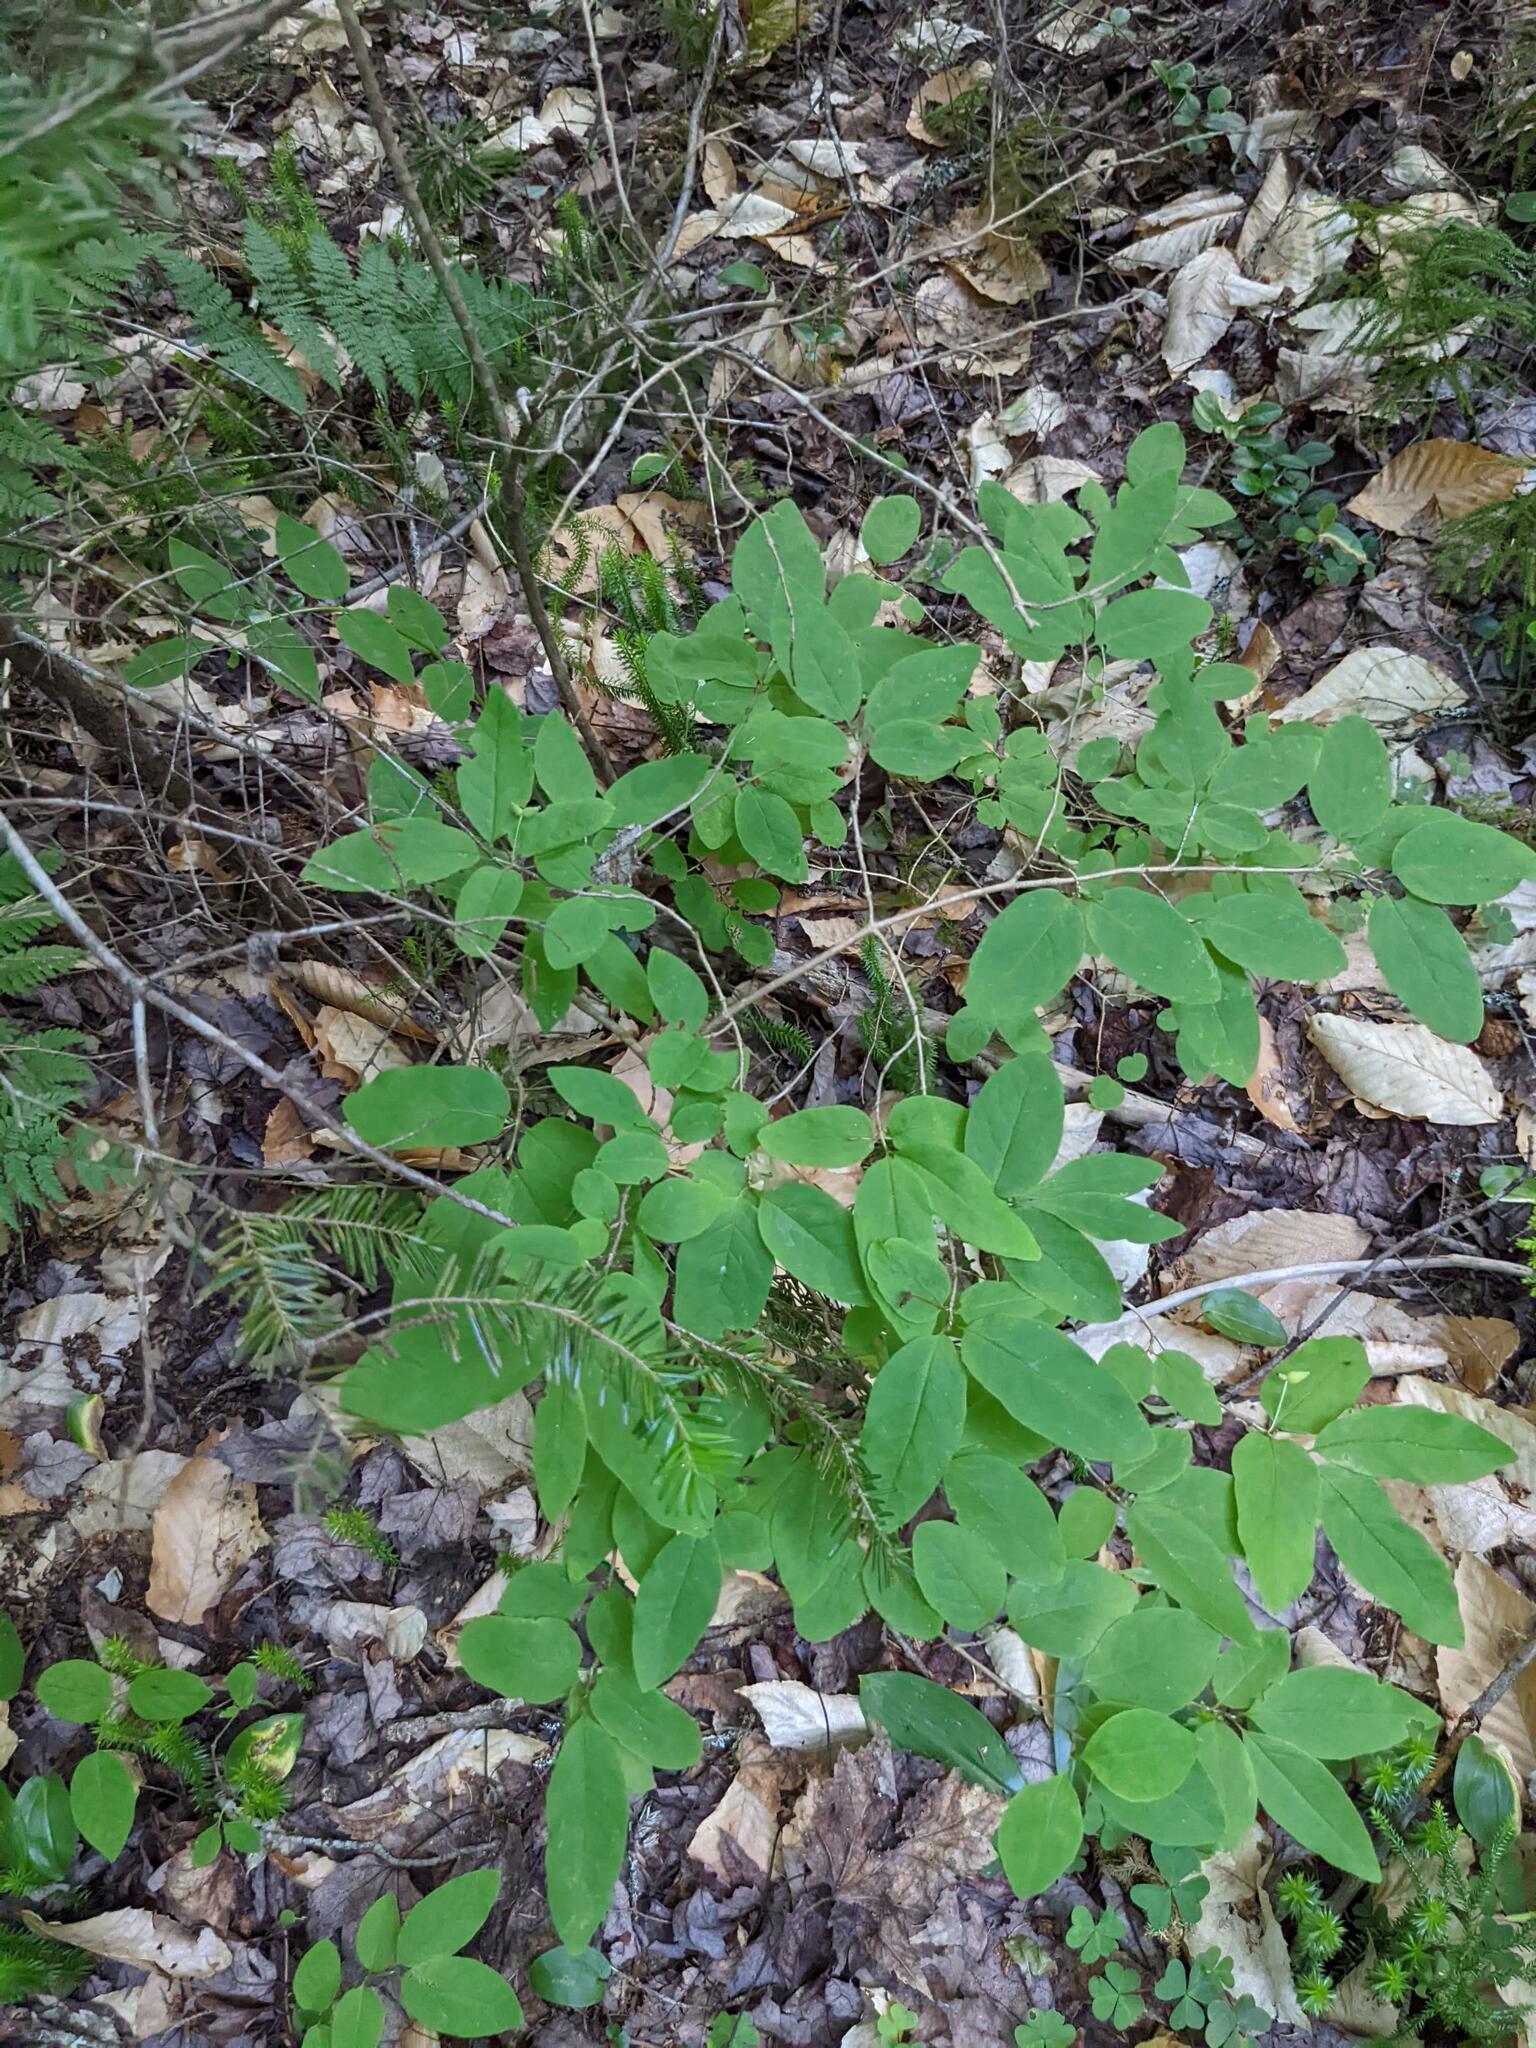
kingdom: Plantae
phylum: Tracheophyta
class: Magnoliopsida
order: Dipsacales
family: Caprifoliaceae
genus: Lonicera
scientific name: Lonicera canadensis
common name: American fly-honeysuckle
